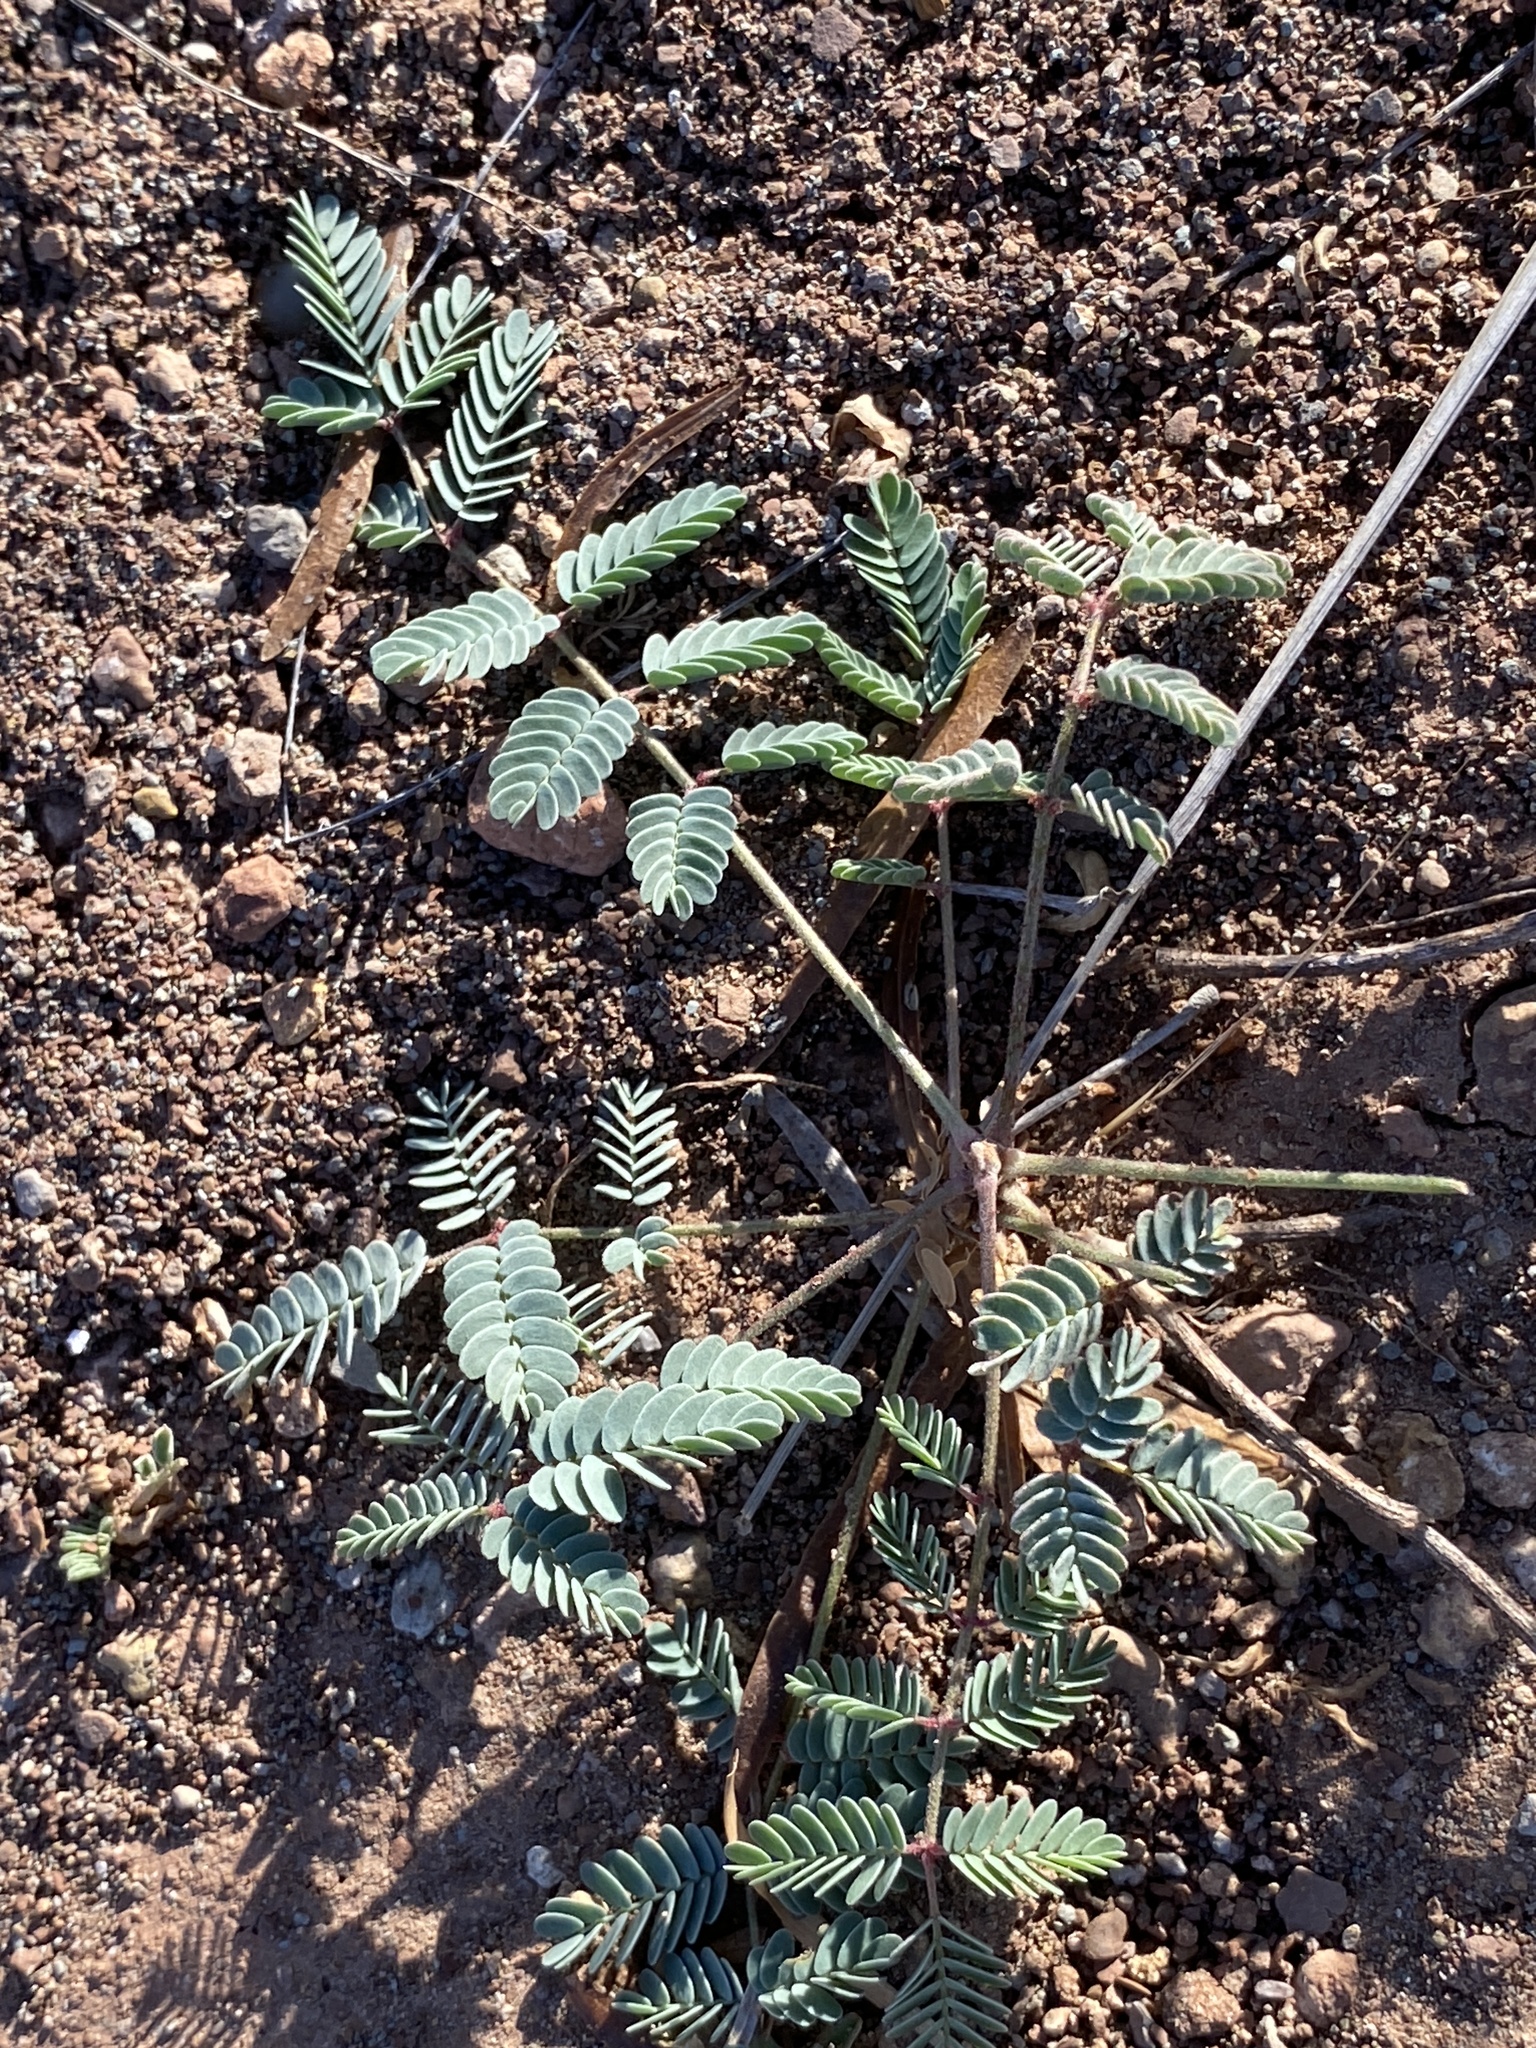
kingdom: Plantae
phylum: Tracheophyta
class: Magnoliopsida
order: Fabales
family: Fabaceae
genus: Hoffmannseggia
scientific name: Hoffmannseggia glauca
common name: Pignut
